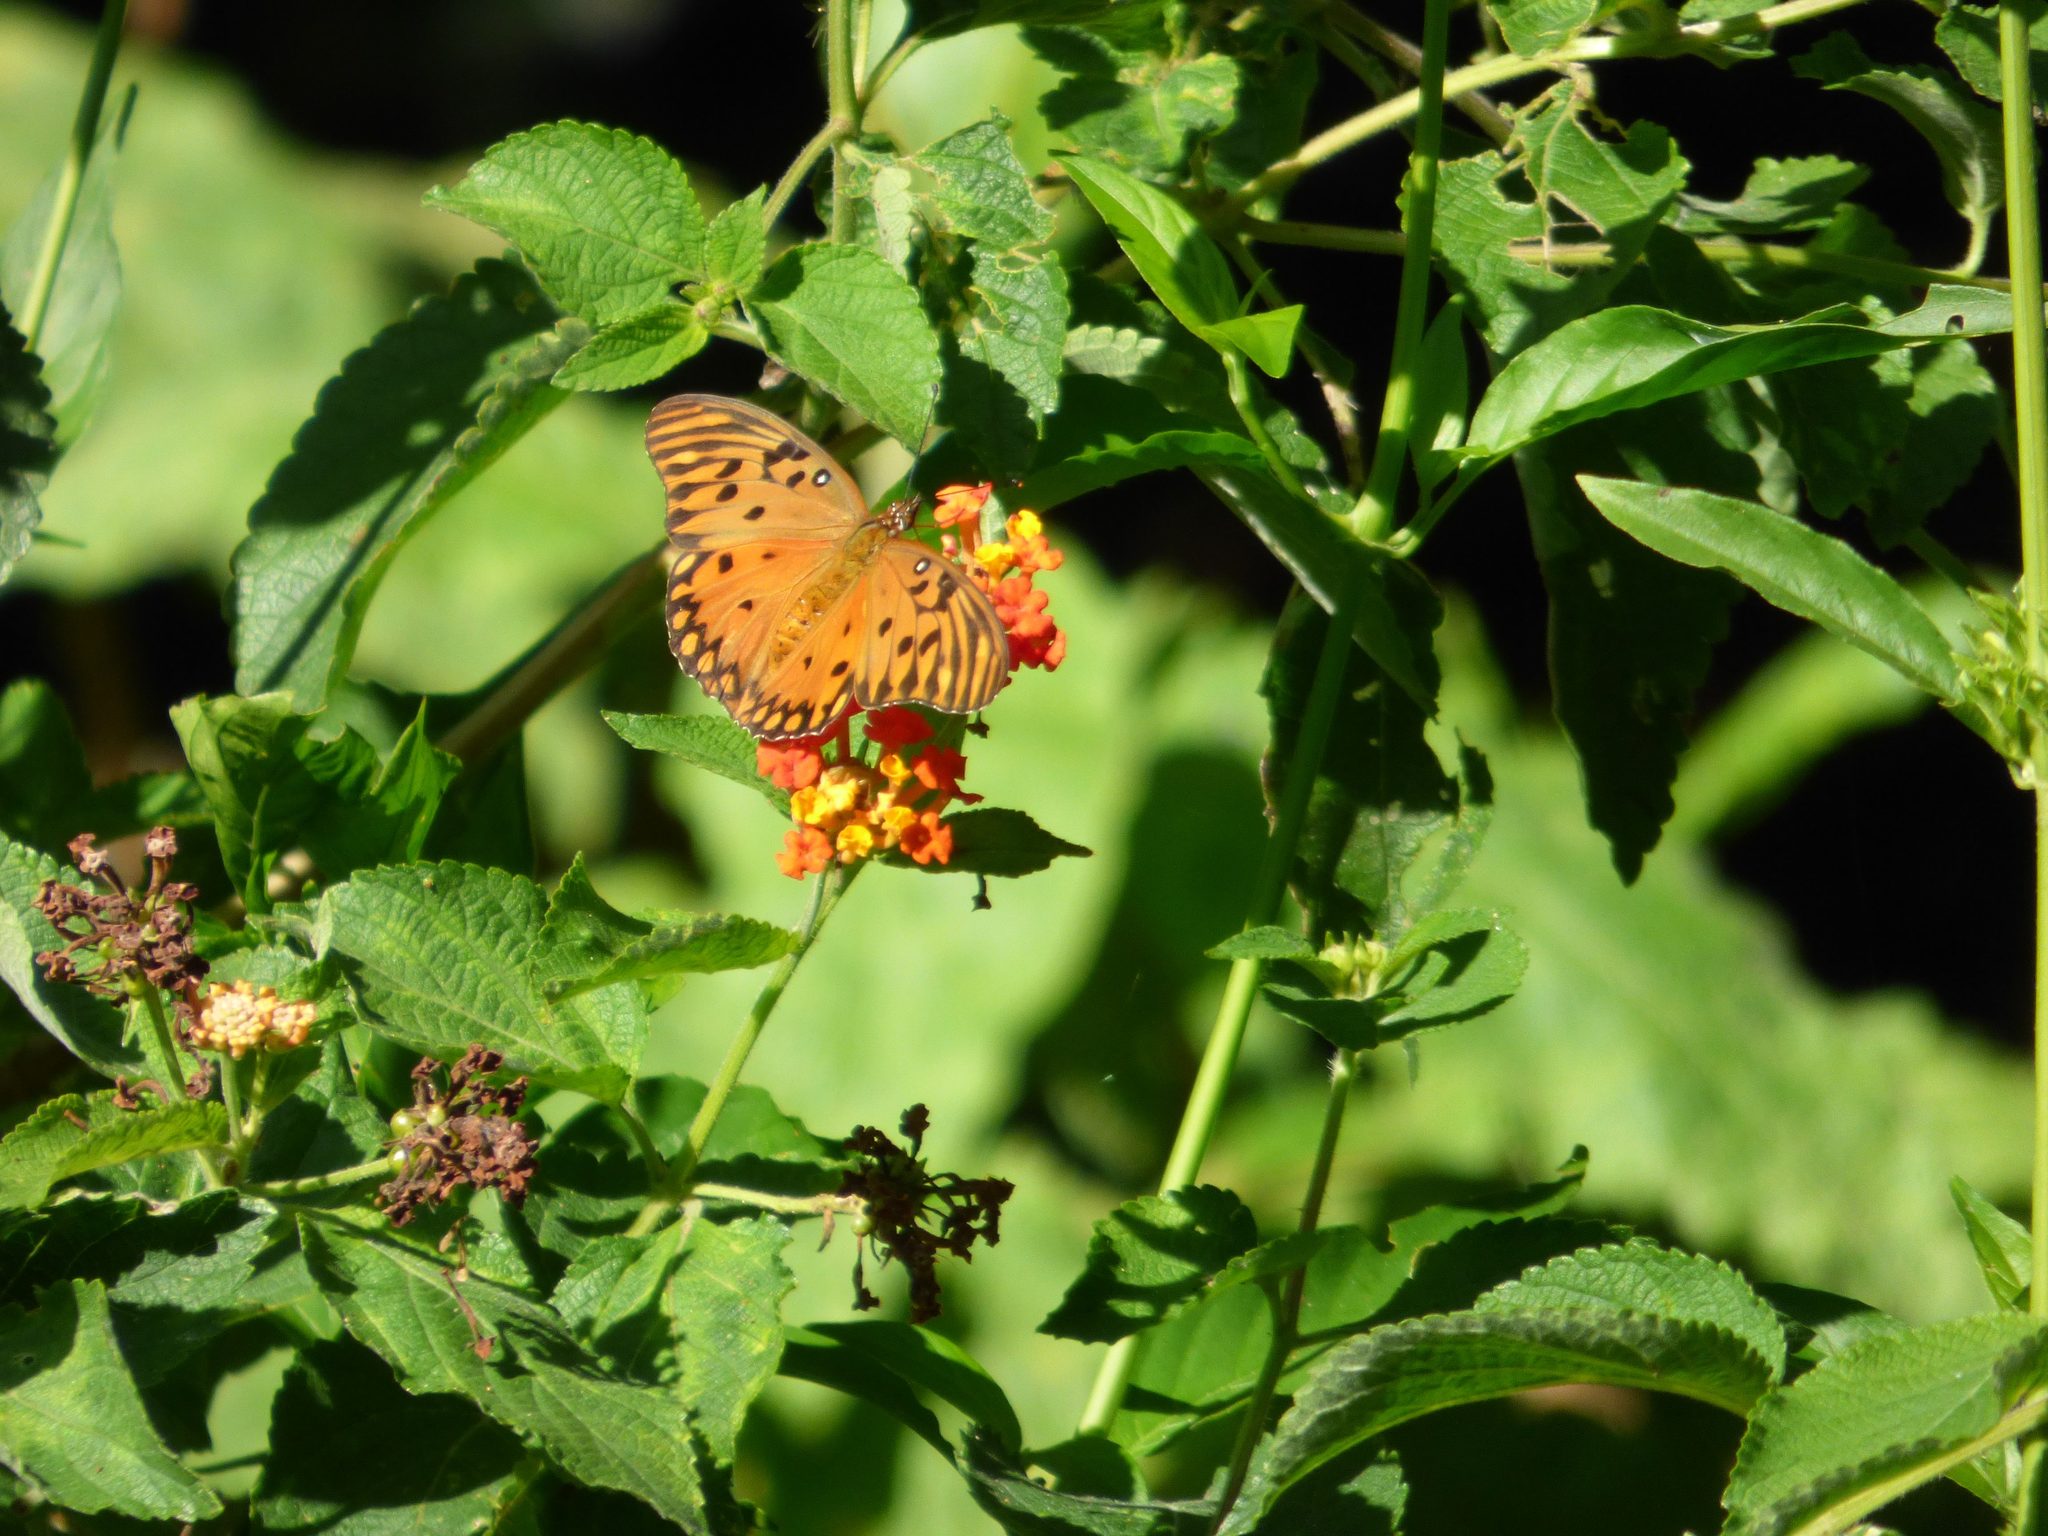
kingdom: Animalia
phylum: Arthropoda
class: Insecta
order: Lepidoptera
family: Nymphalidae
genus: Dione
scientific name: Dione vanillae
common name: Gulf fritillary
